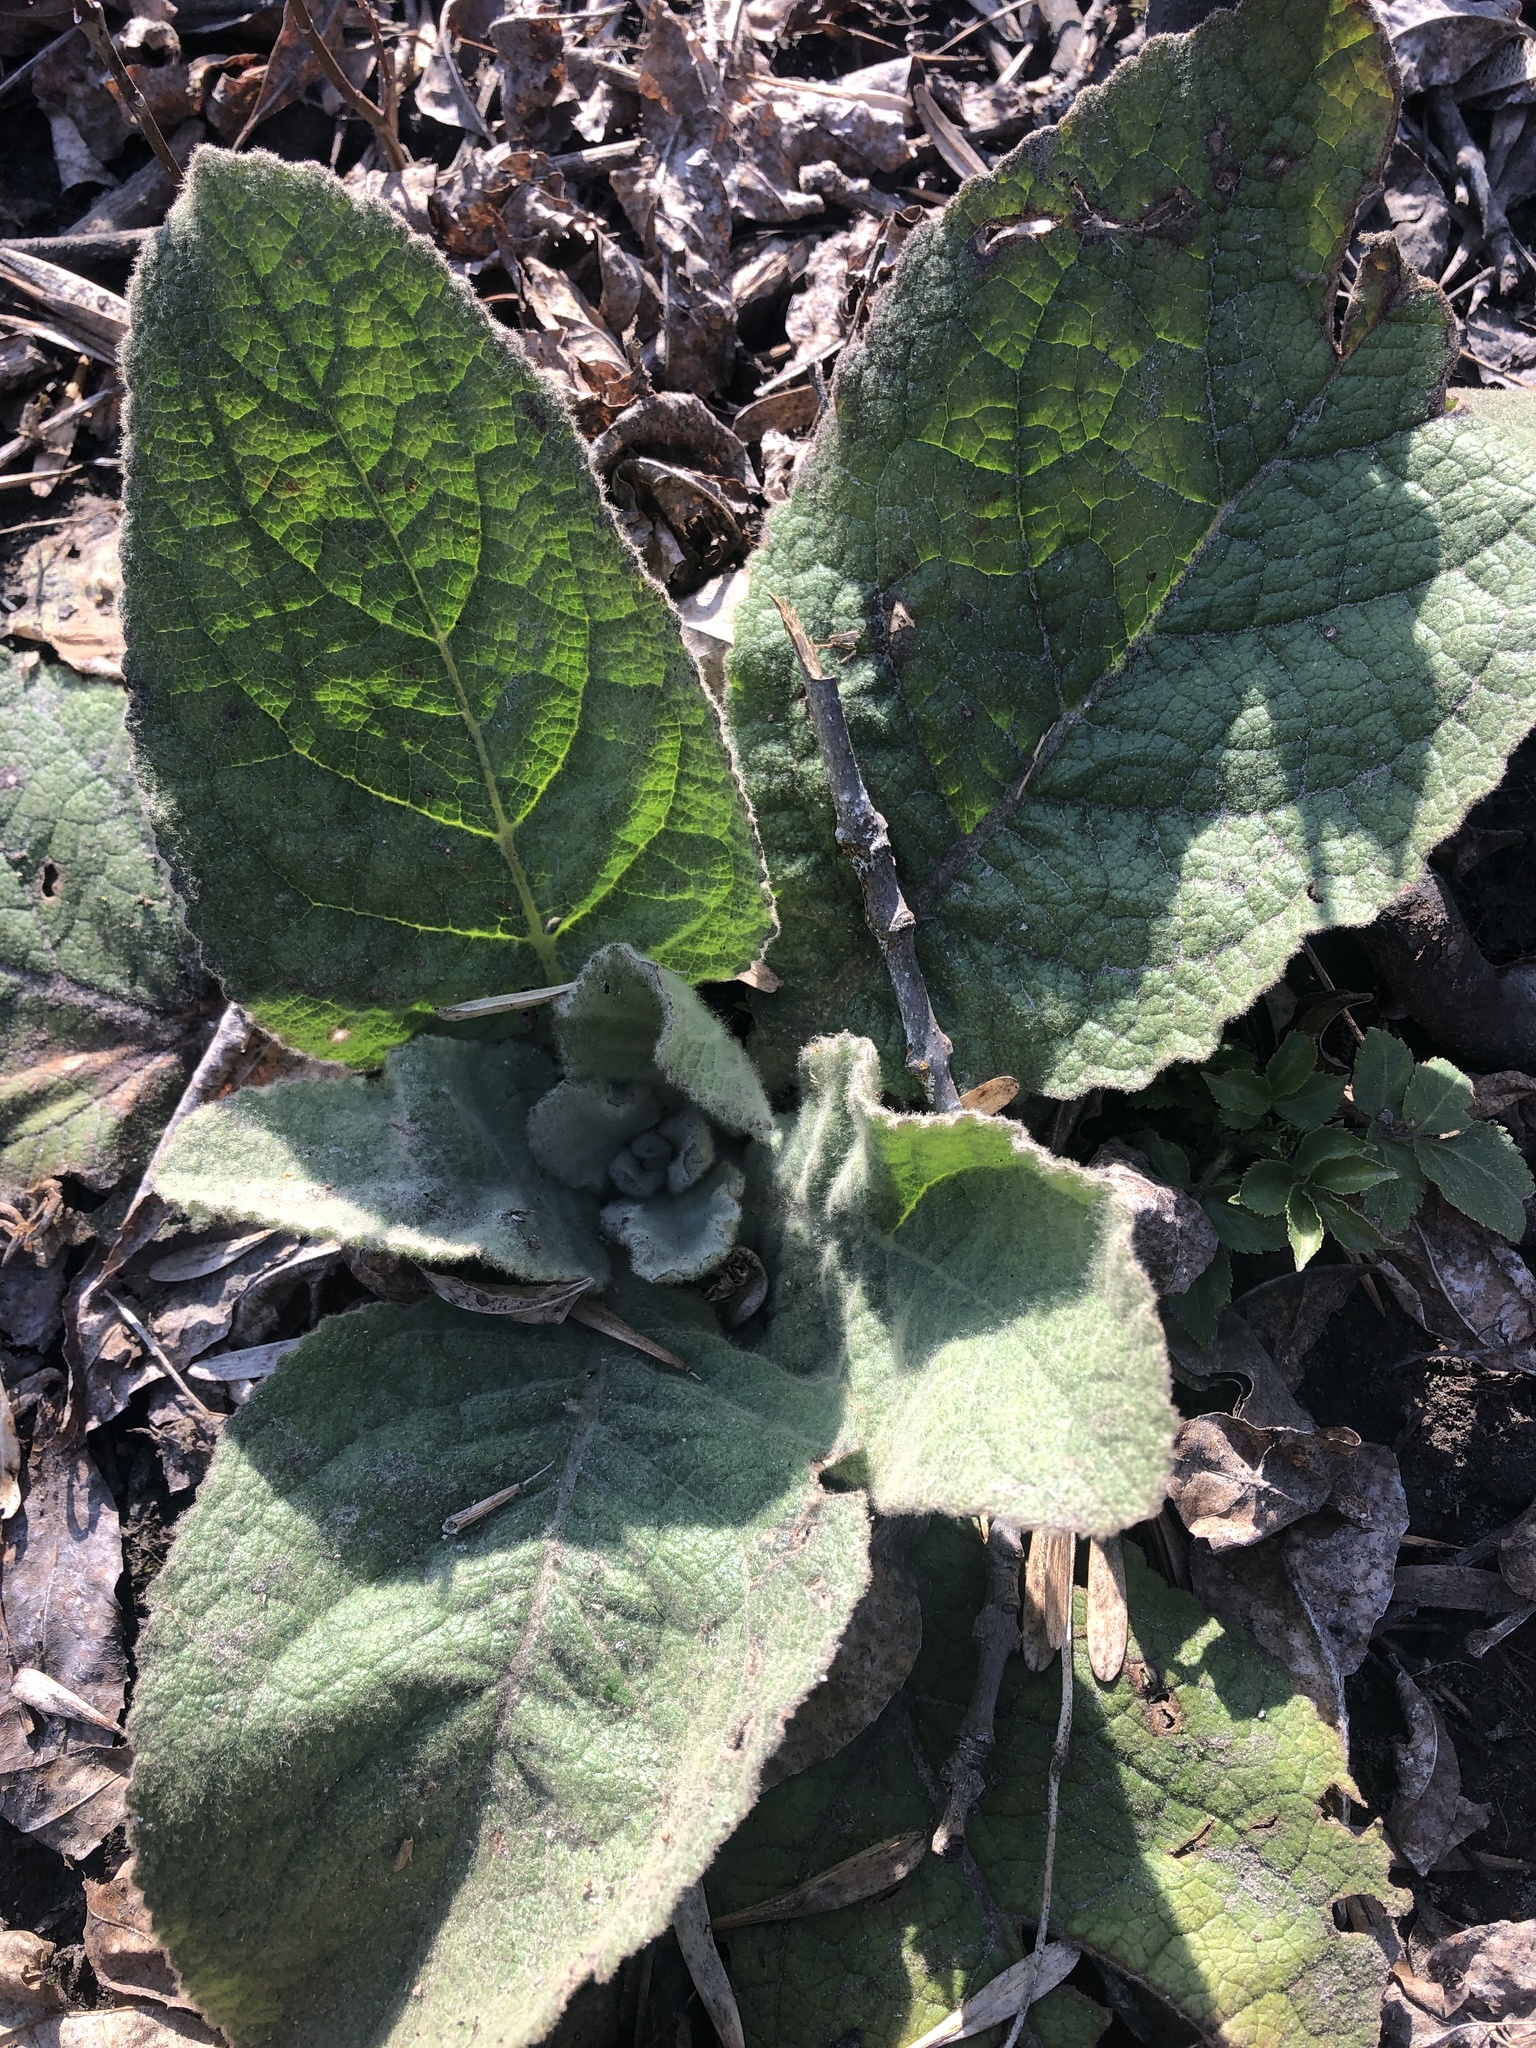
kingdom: Plantae
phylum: Tracheophyta
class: Magnoliopsida
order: Lamiales
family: Scrophulariaceae
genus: Verbascum
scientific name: Verbascum thapsus
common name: Common mullein
